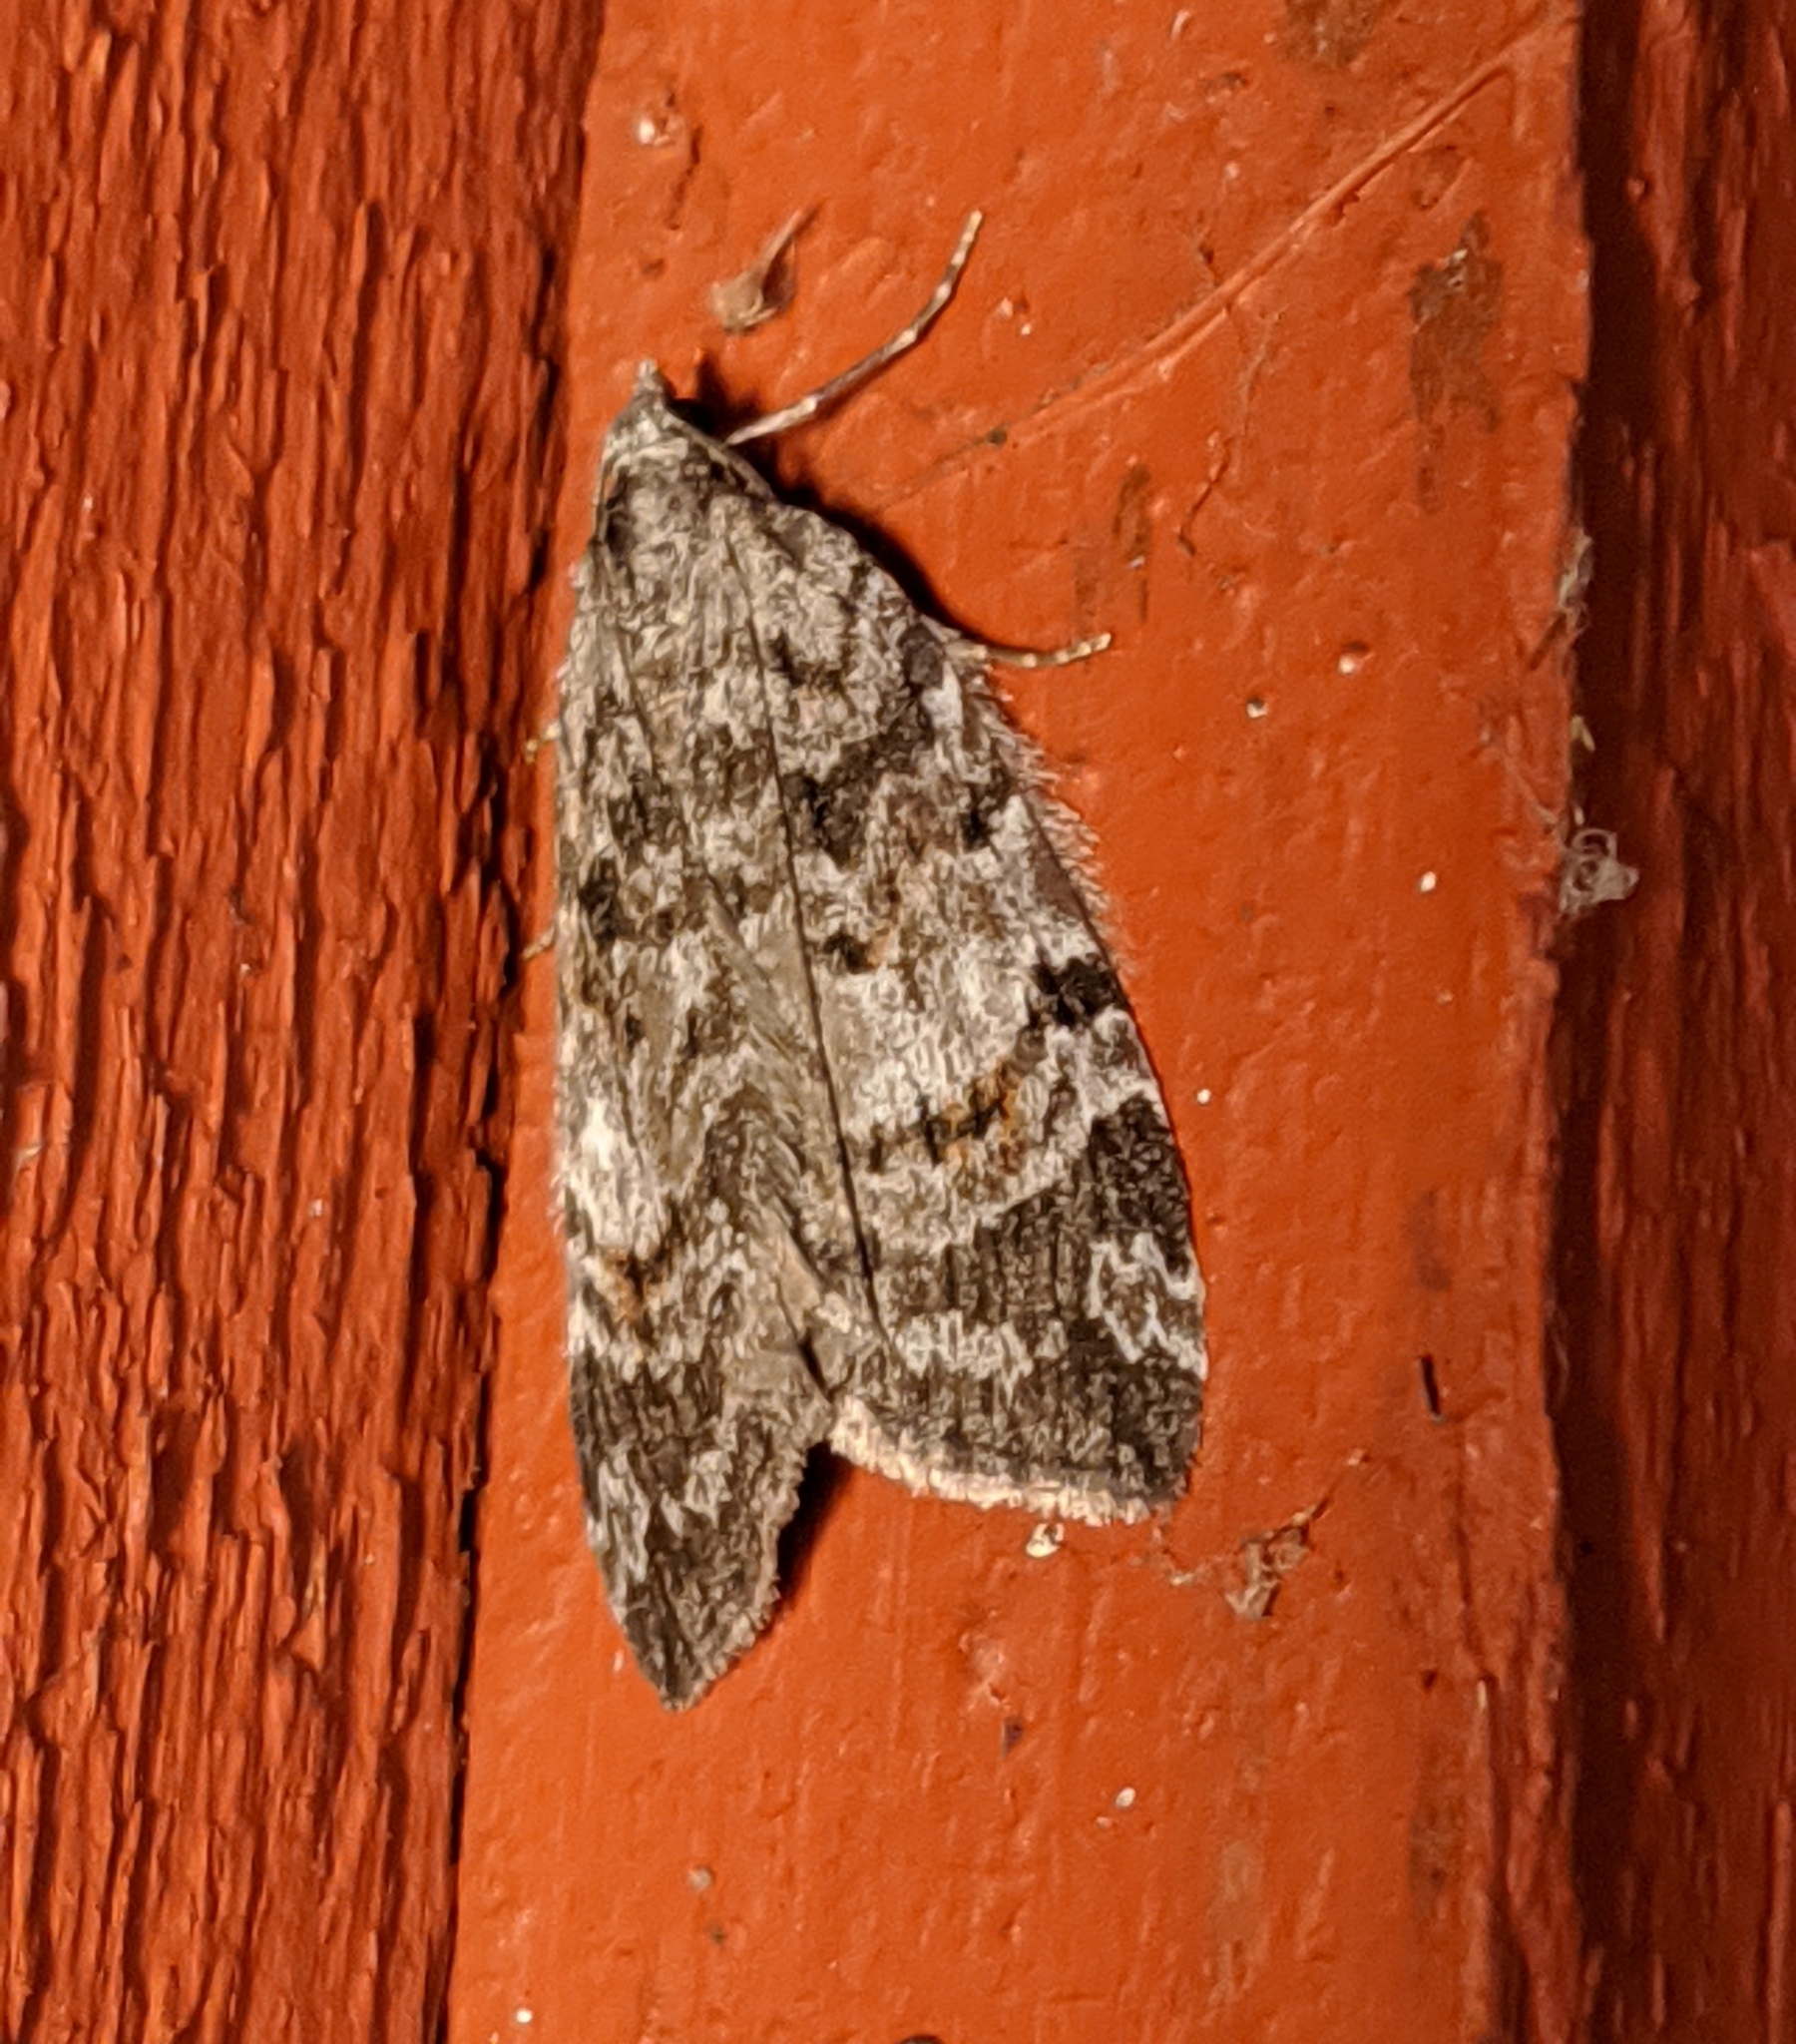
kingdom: Animalia
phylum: Arthropoda
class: Insecta
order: Lepidoptera
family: Geometridae
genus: Hydriomena
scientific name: Hydriomena manzanita
